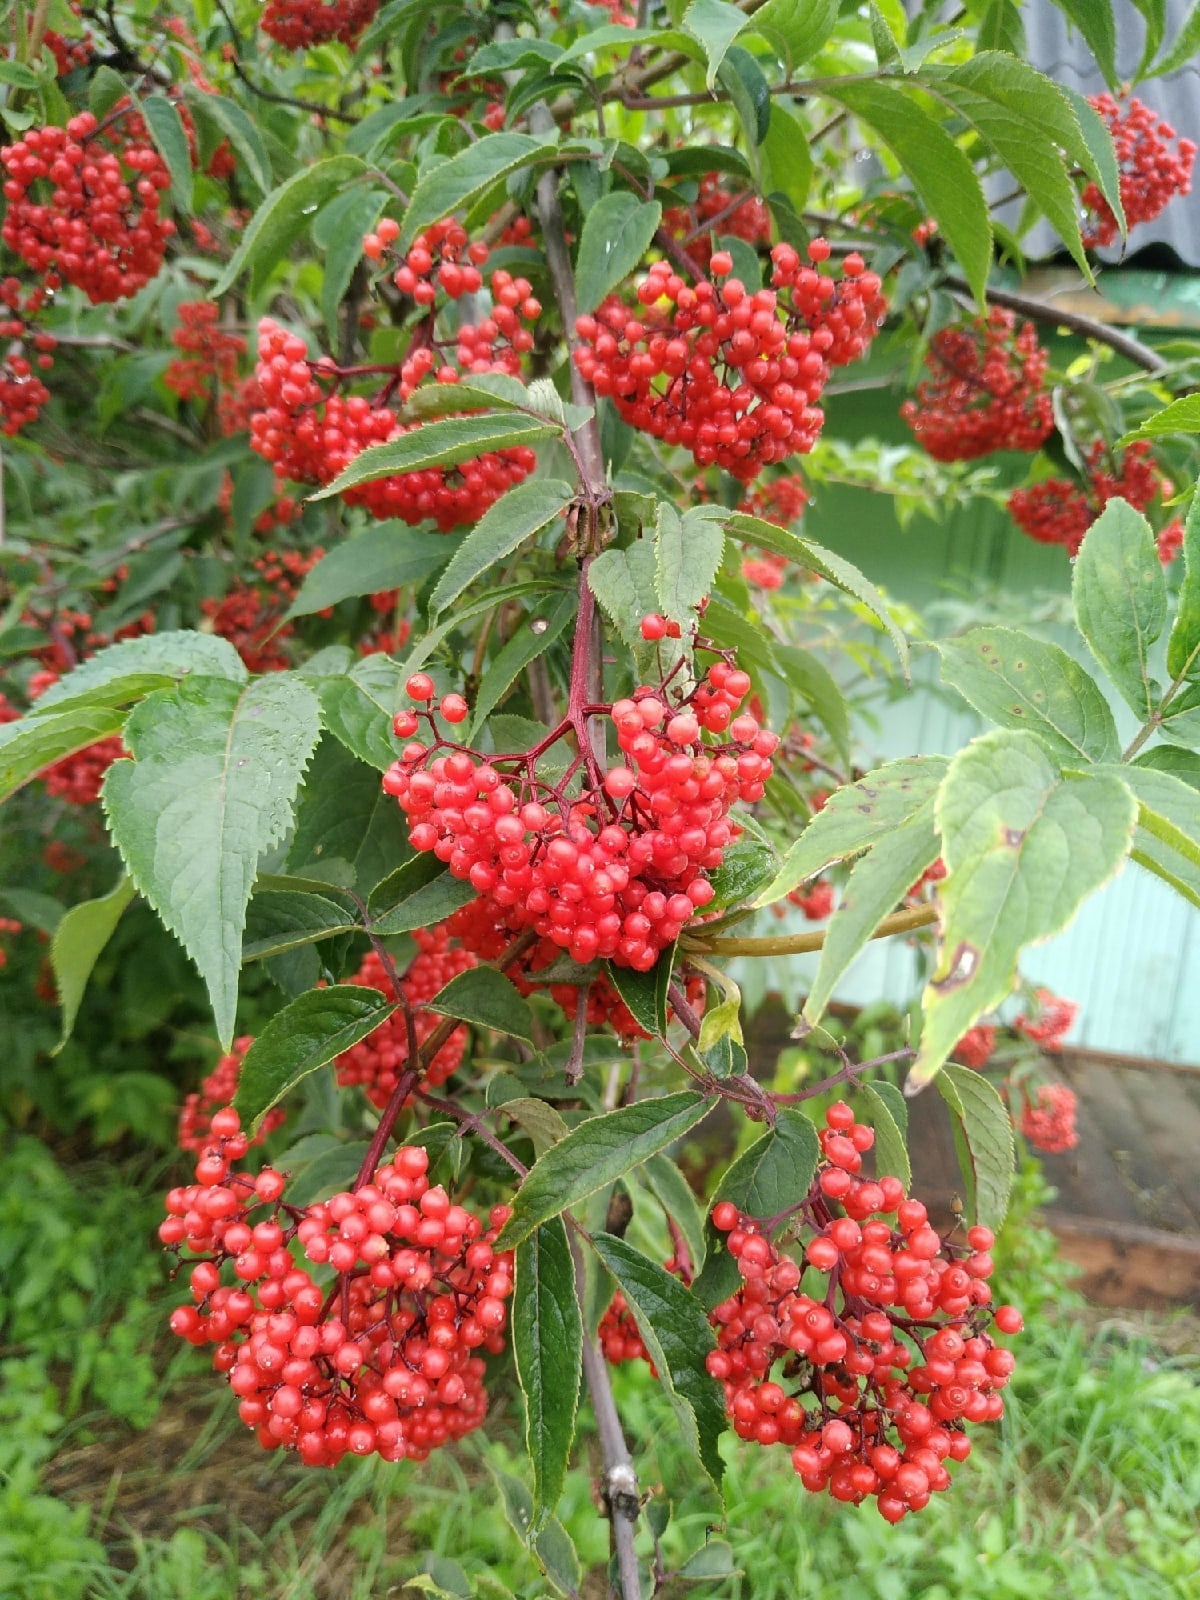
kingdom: Plantae
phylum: Tracheophyta
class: Magnoliopsida
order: Dipsacales
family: Viburnaceae
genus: Sambucus
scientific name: Sambucus racemosa
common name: Red-berried elder
